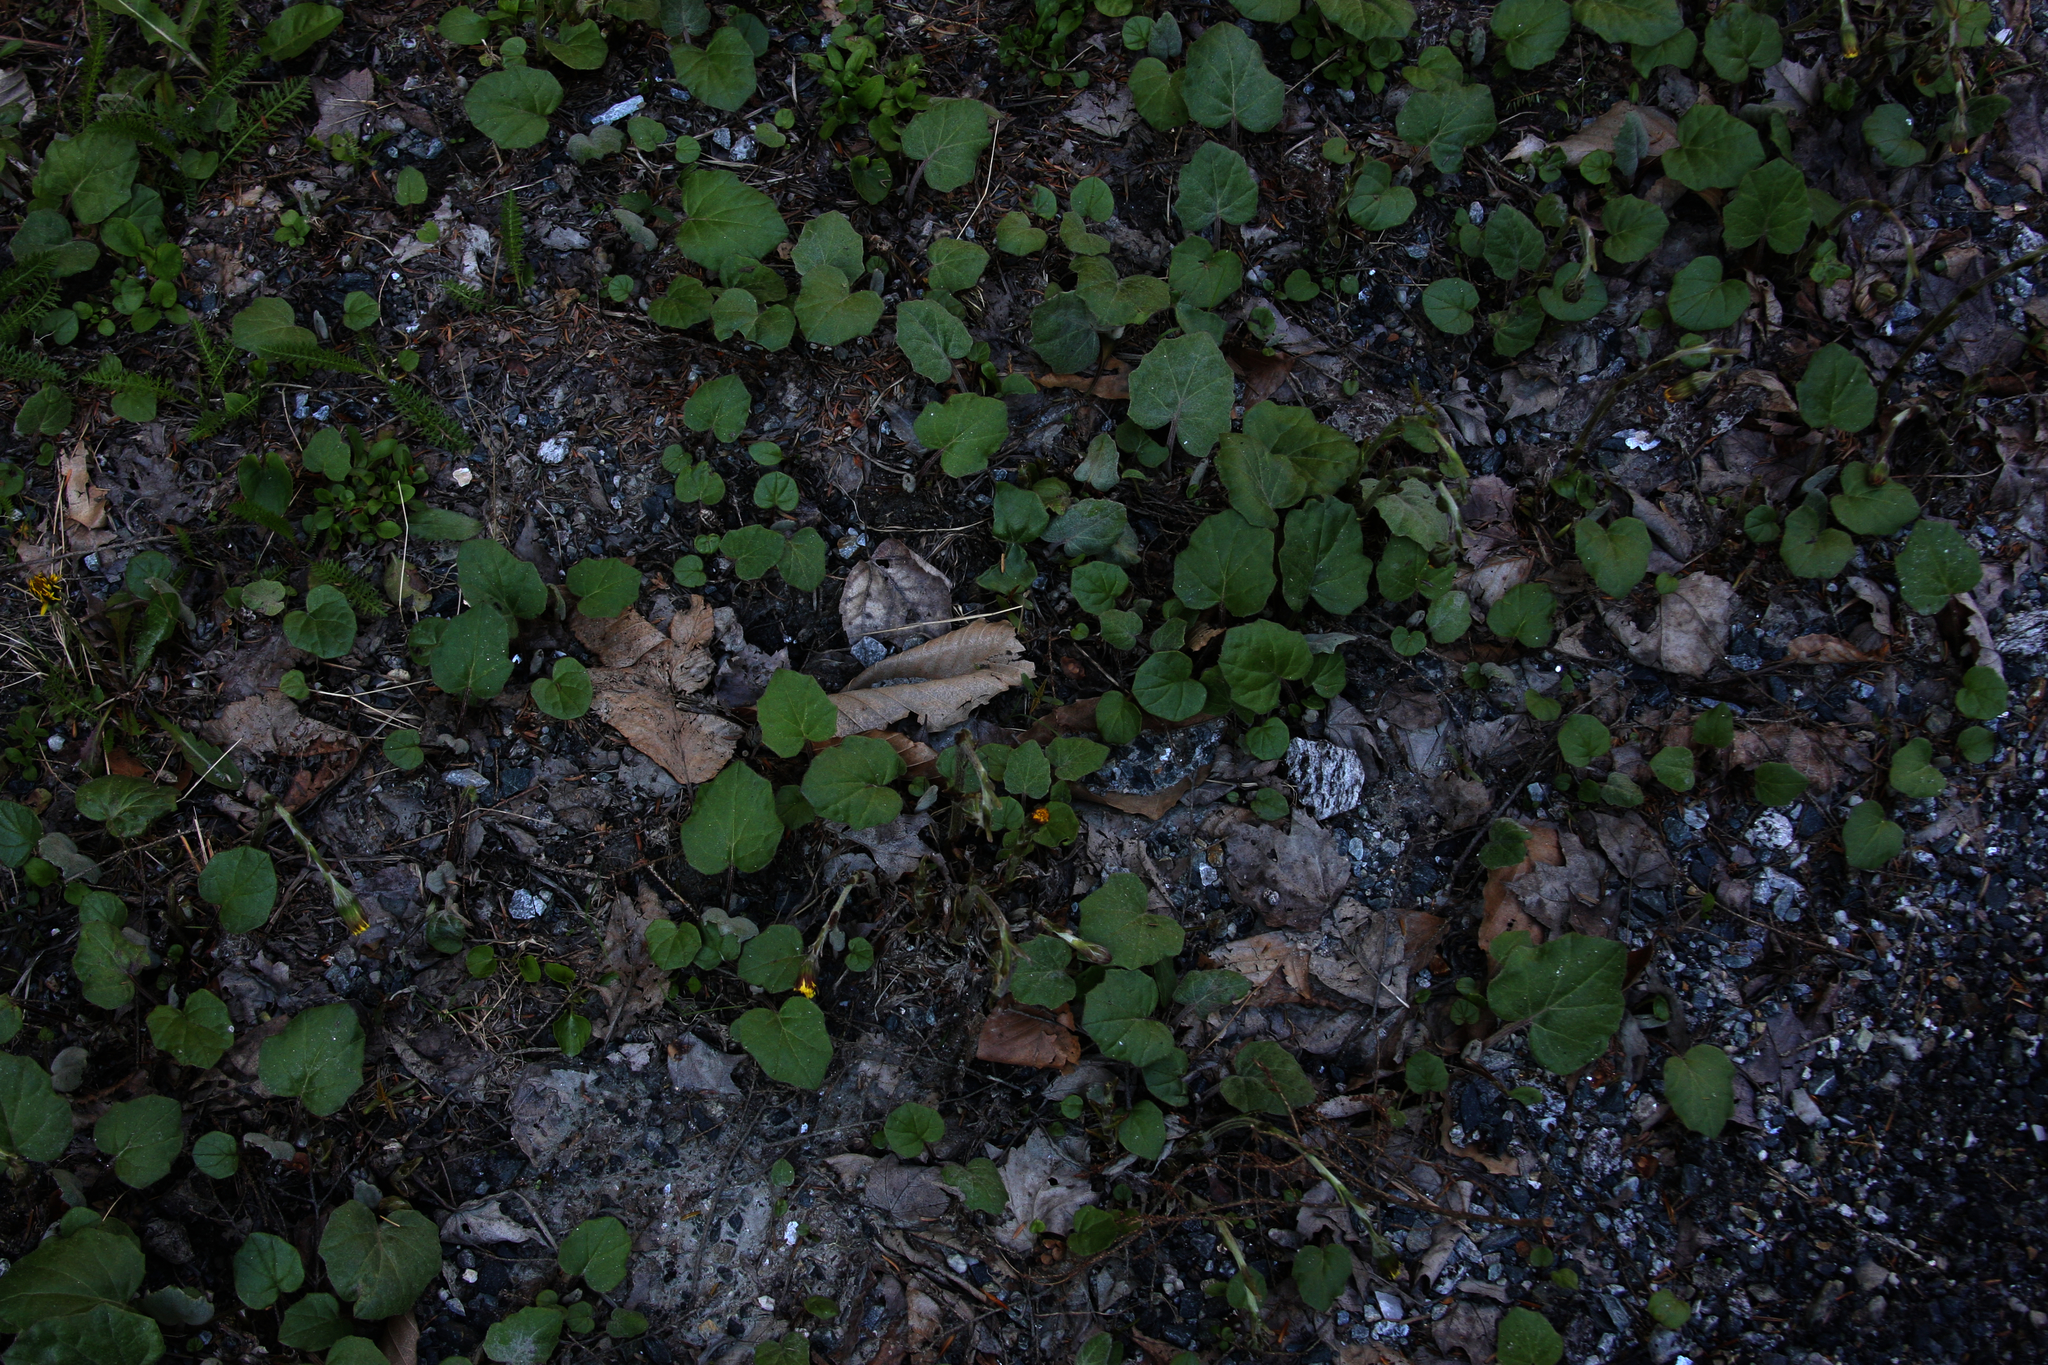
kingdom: Plantae
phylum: Tracheophyta
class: Magnoliopsida
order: Asterales
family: Asteraceae
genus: Tussilago
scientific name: Tussilago farfara
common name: Coltsfoot
